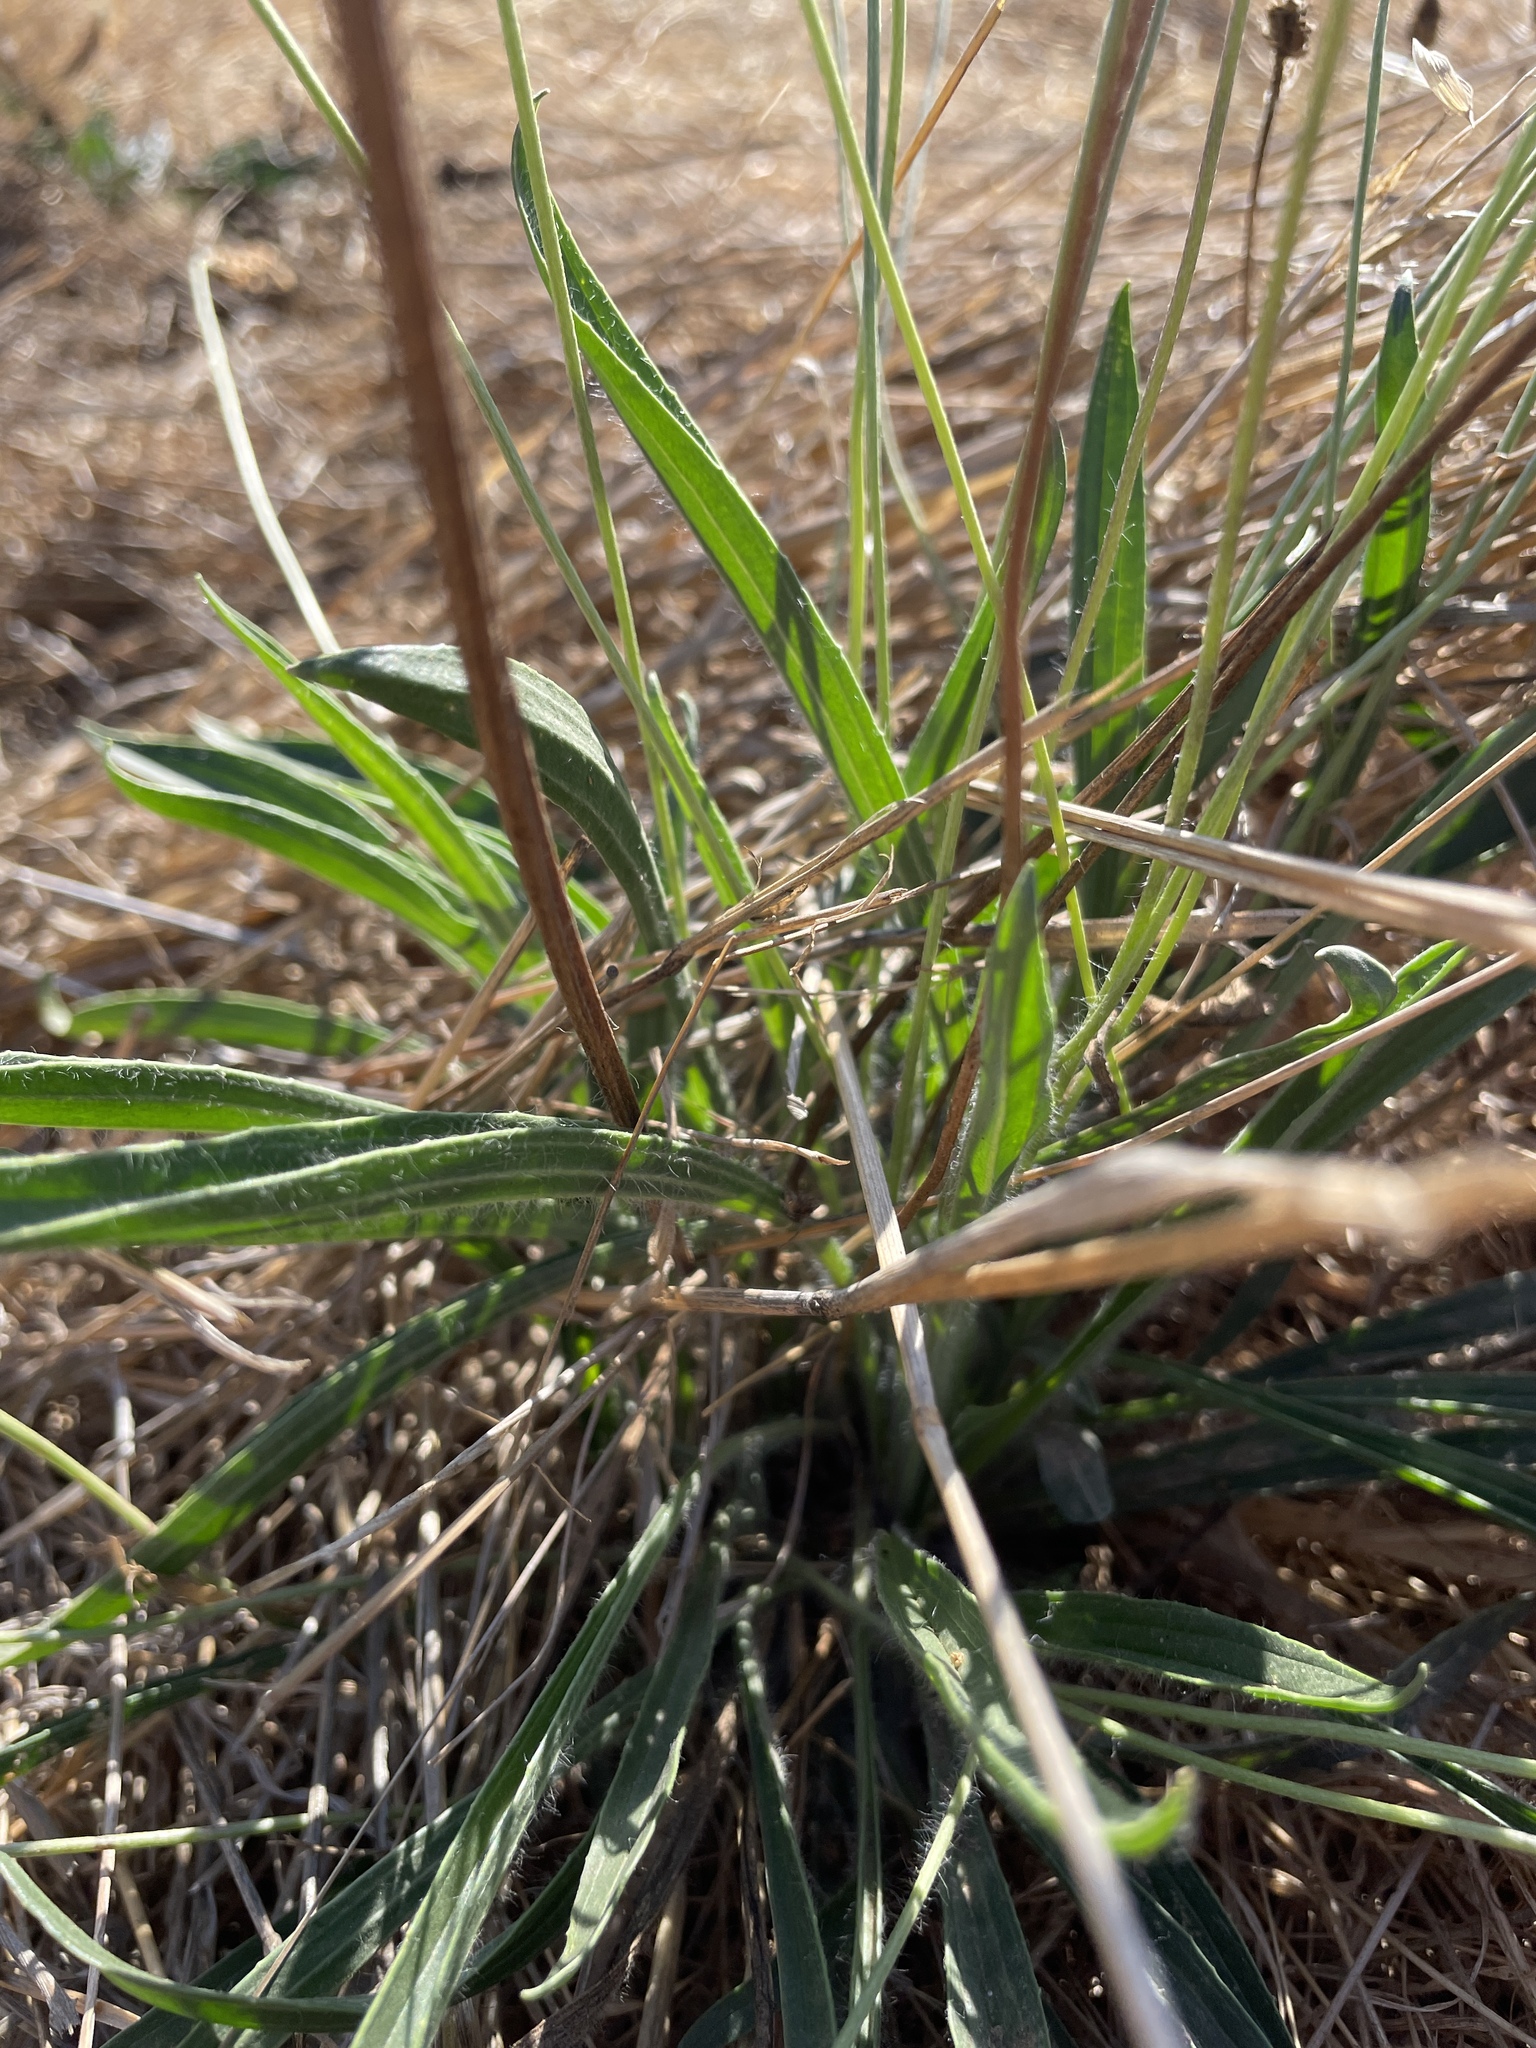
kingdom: Plantae
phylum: Tracheophyta
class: Magnoliopsida
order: Lamiales
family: Plantaginaceae
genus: Plantago
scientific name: Plantago lanceolata
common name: Ribwort plantain
